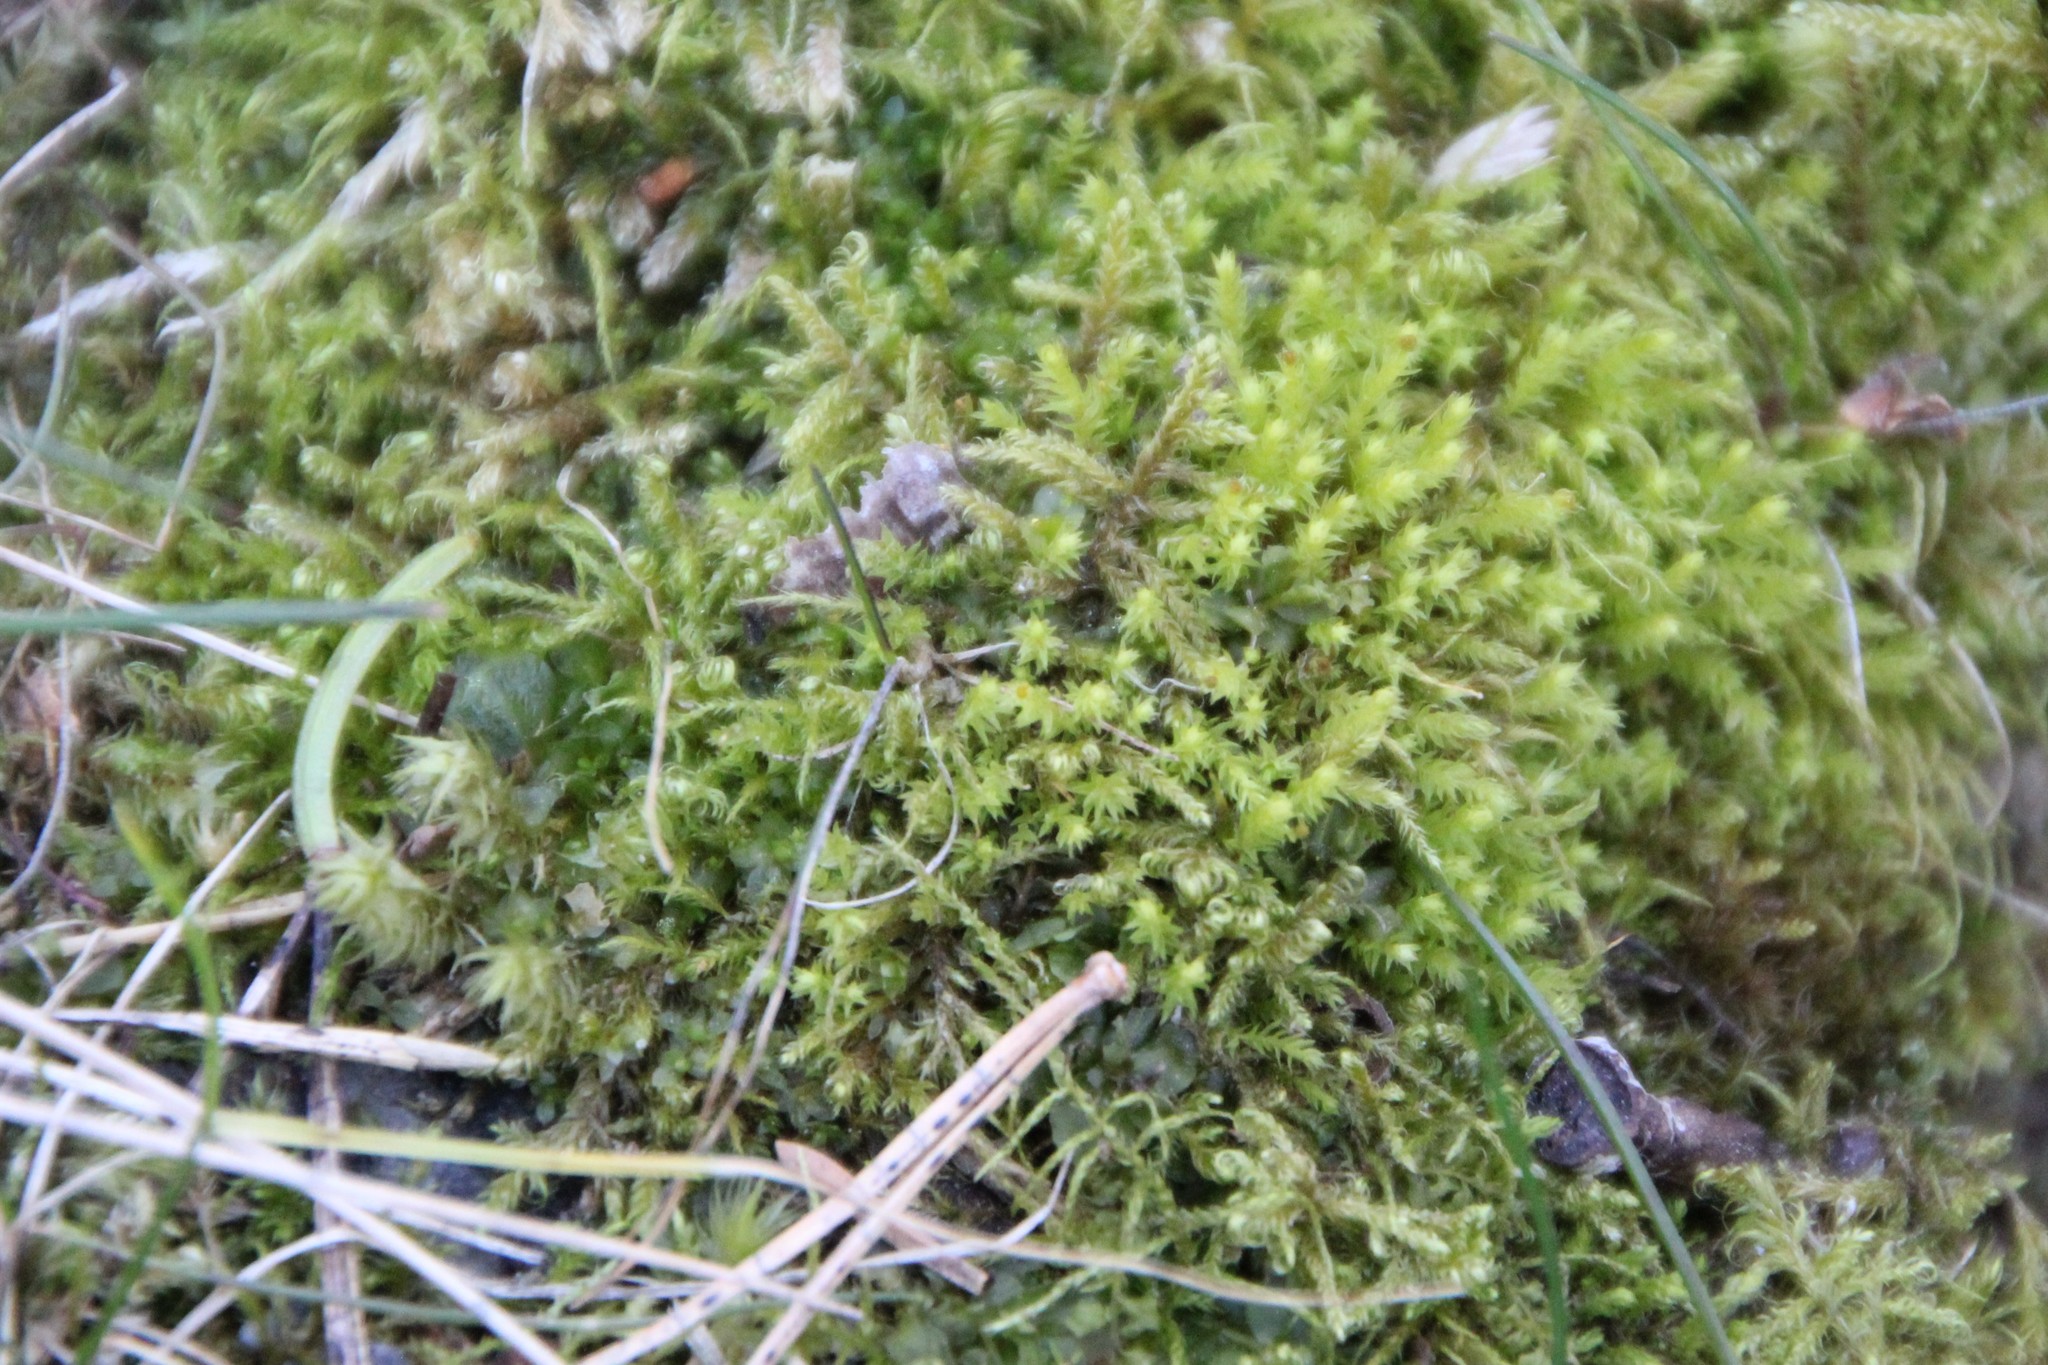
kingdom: Plantae
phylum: Bryophyta
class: Bryopsida
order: Hypnales
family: Hylocomiaceae
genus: Hylocomiadelphus
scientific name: Hylocomiadelphus triquetrus
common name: Rough goose neck moss
